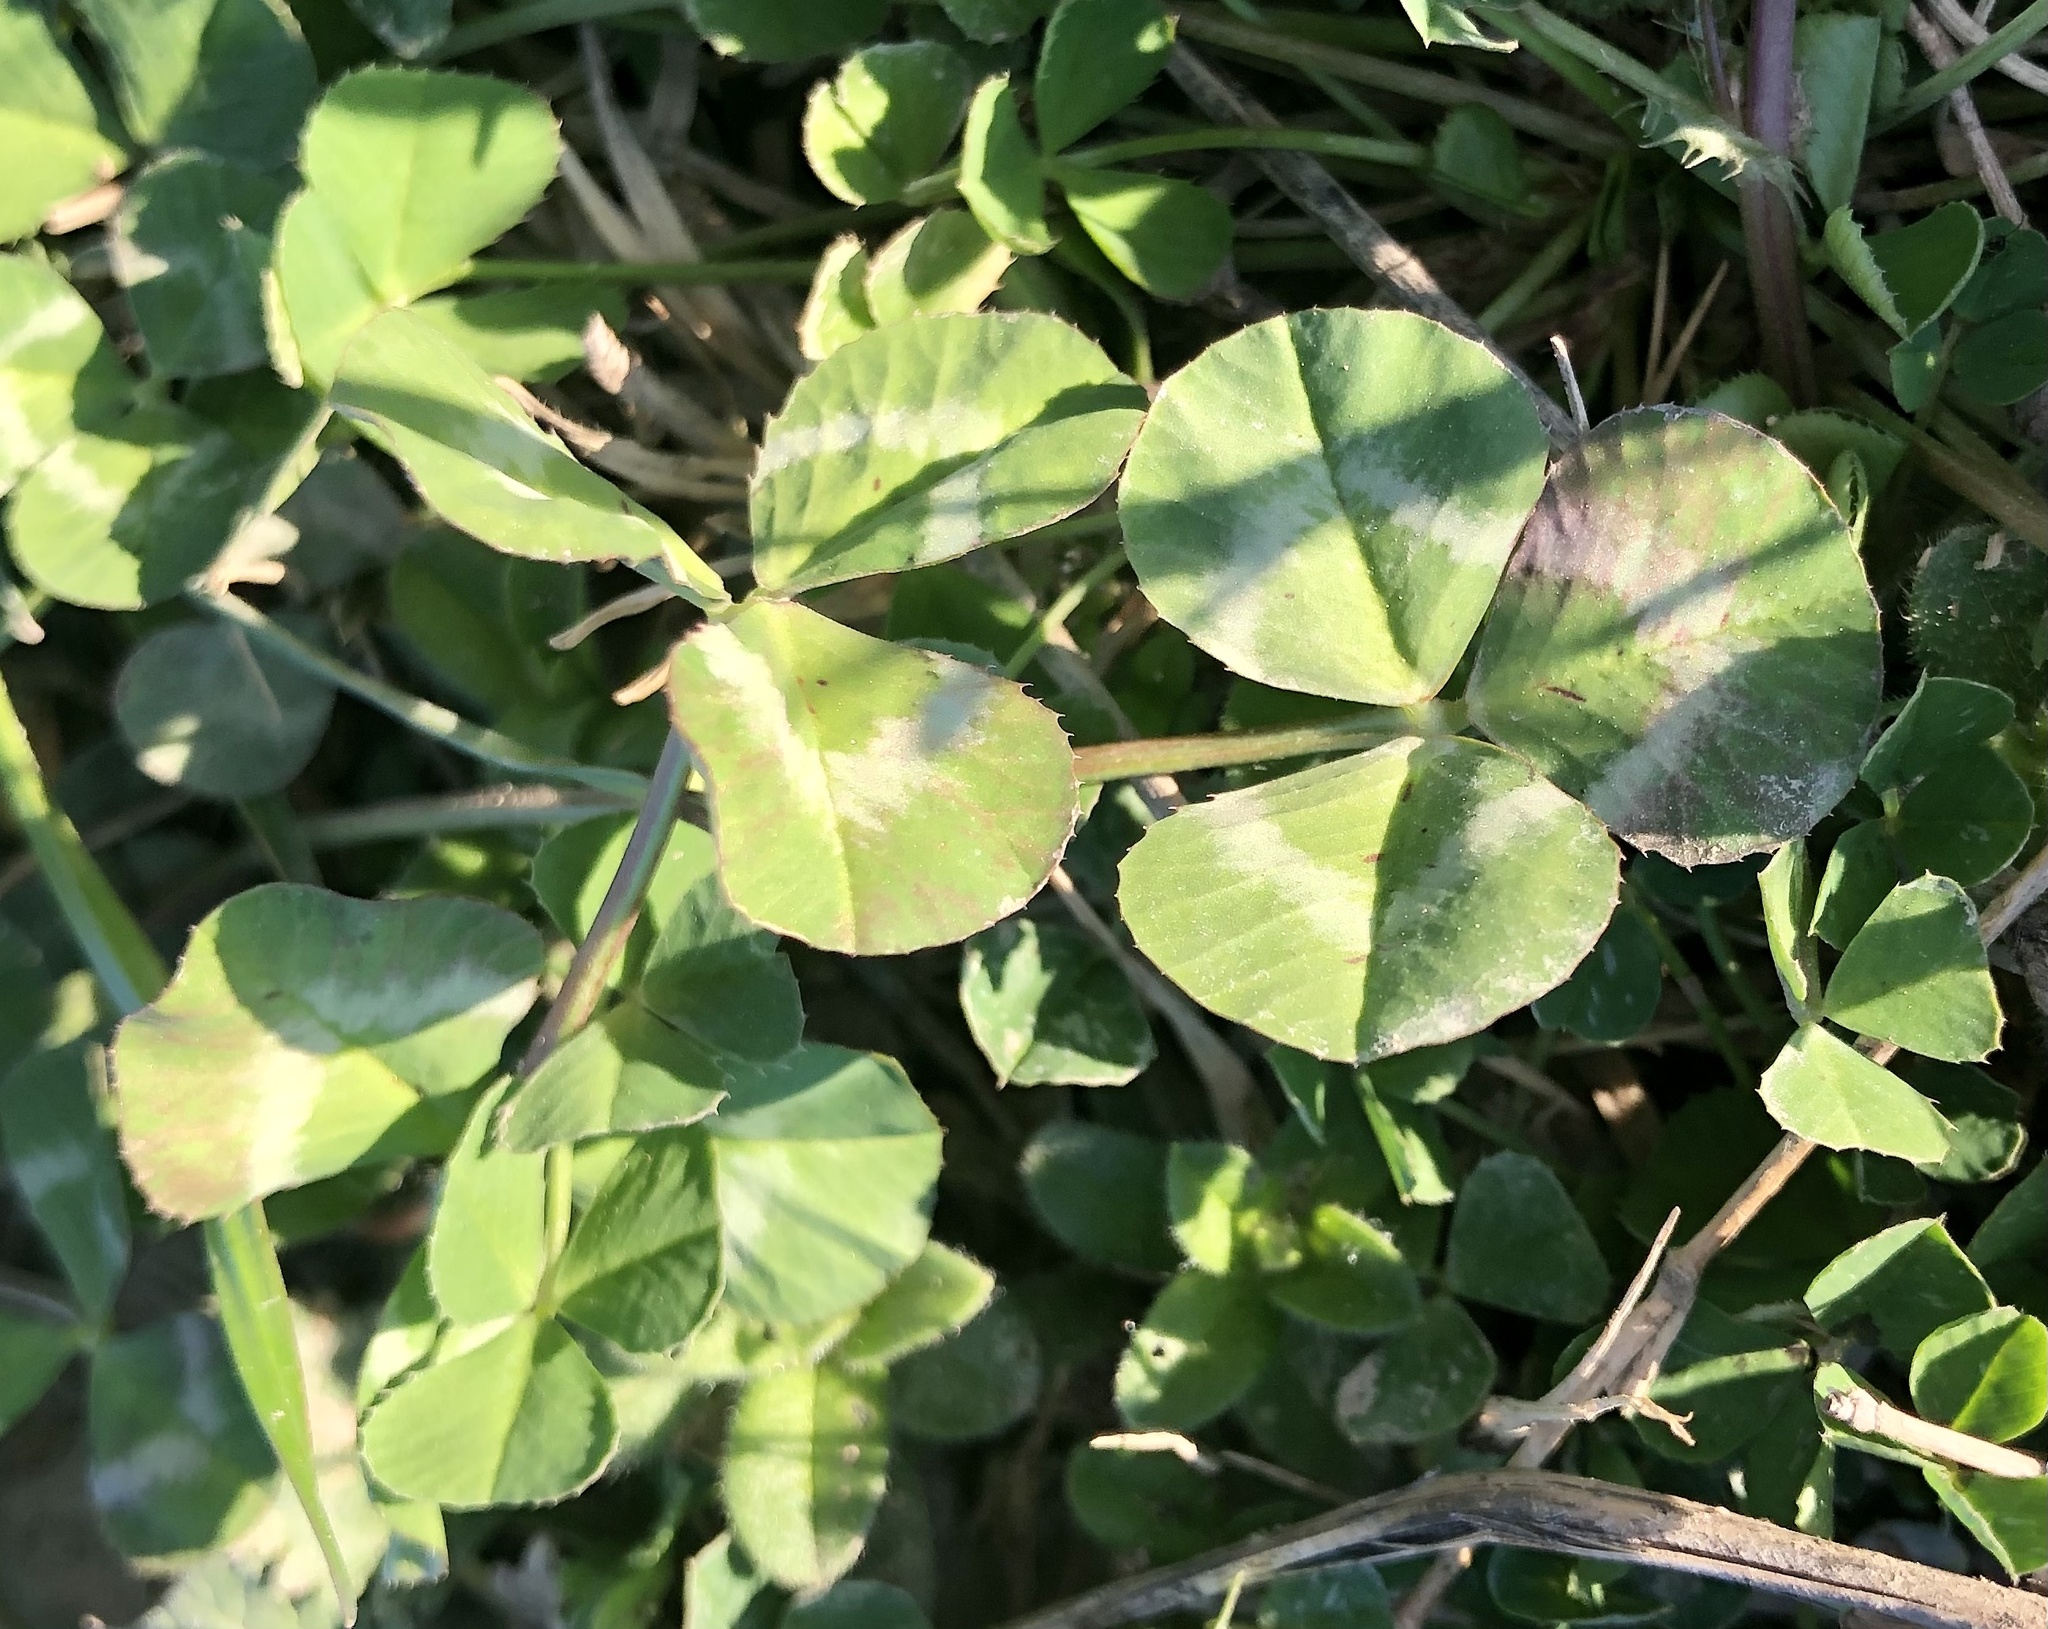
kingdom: Plantae
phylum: Tracheophyta
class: Magnoliopsida
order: Fabales
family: Fabaceae
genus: Trifolium
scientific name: Trifolium repens
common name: White clover
